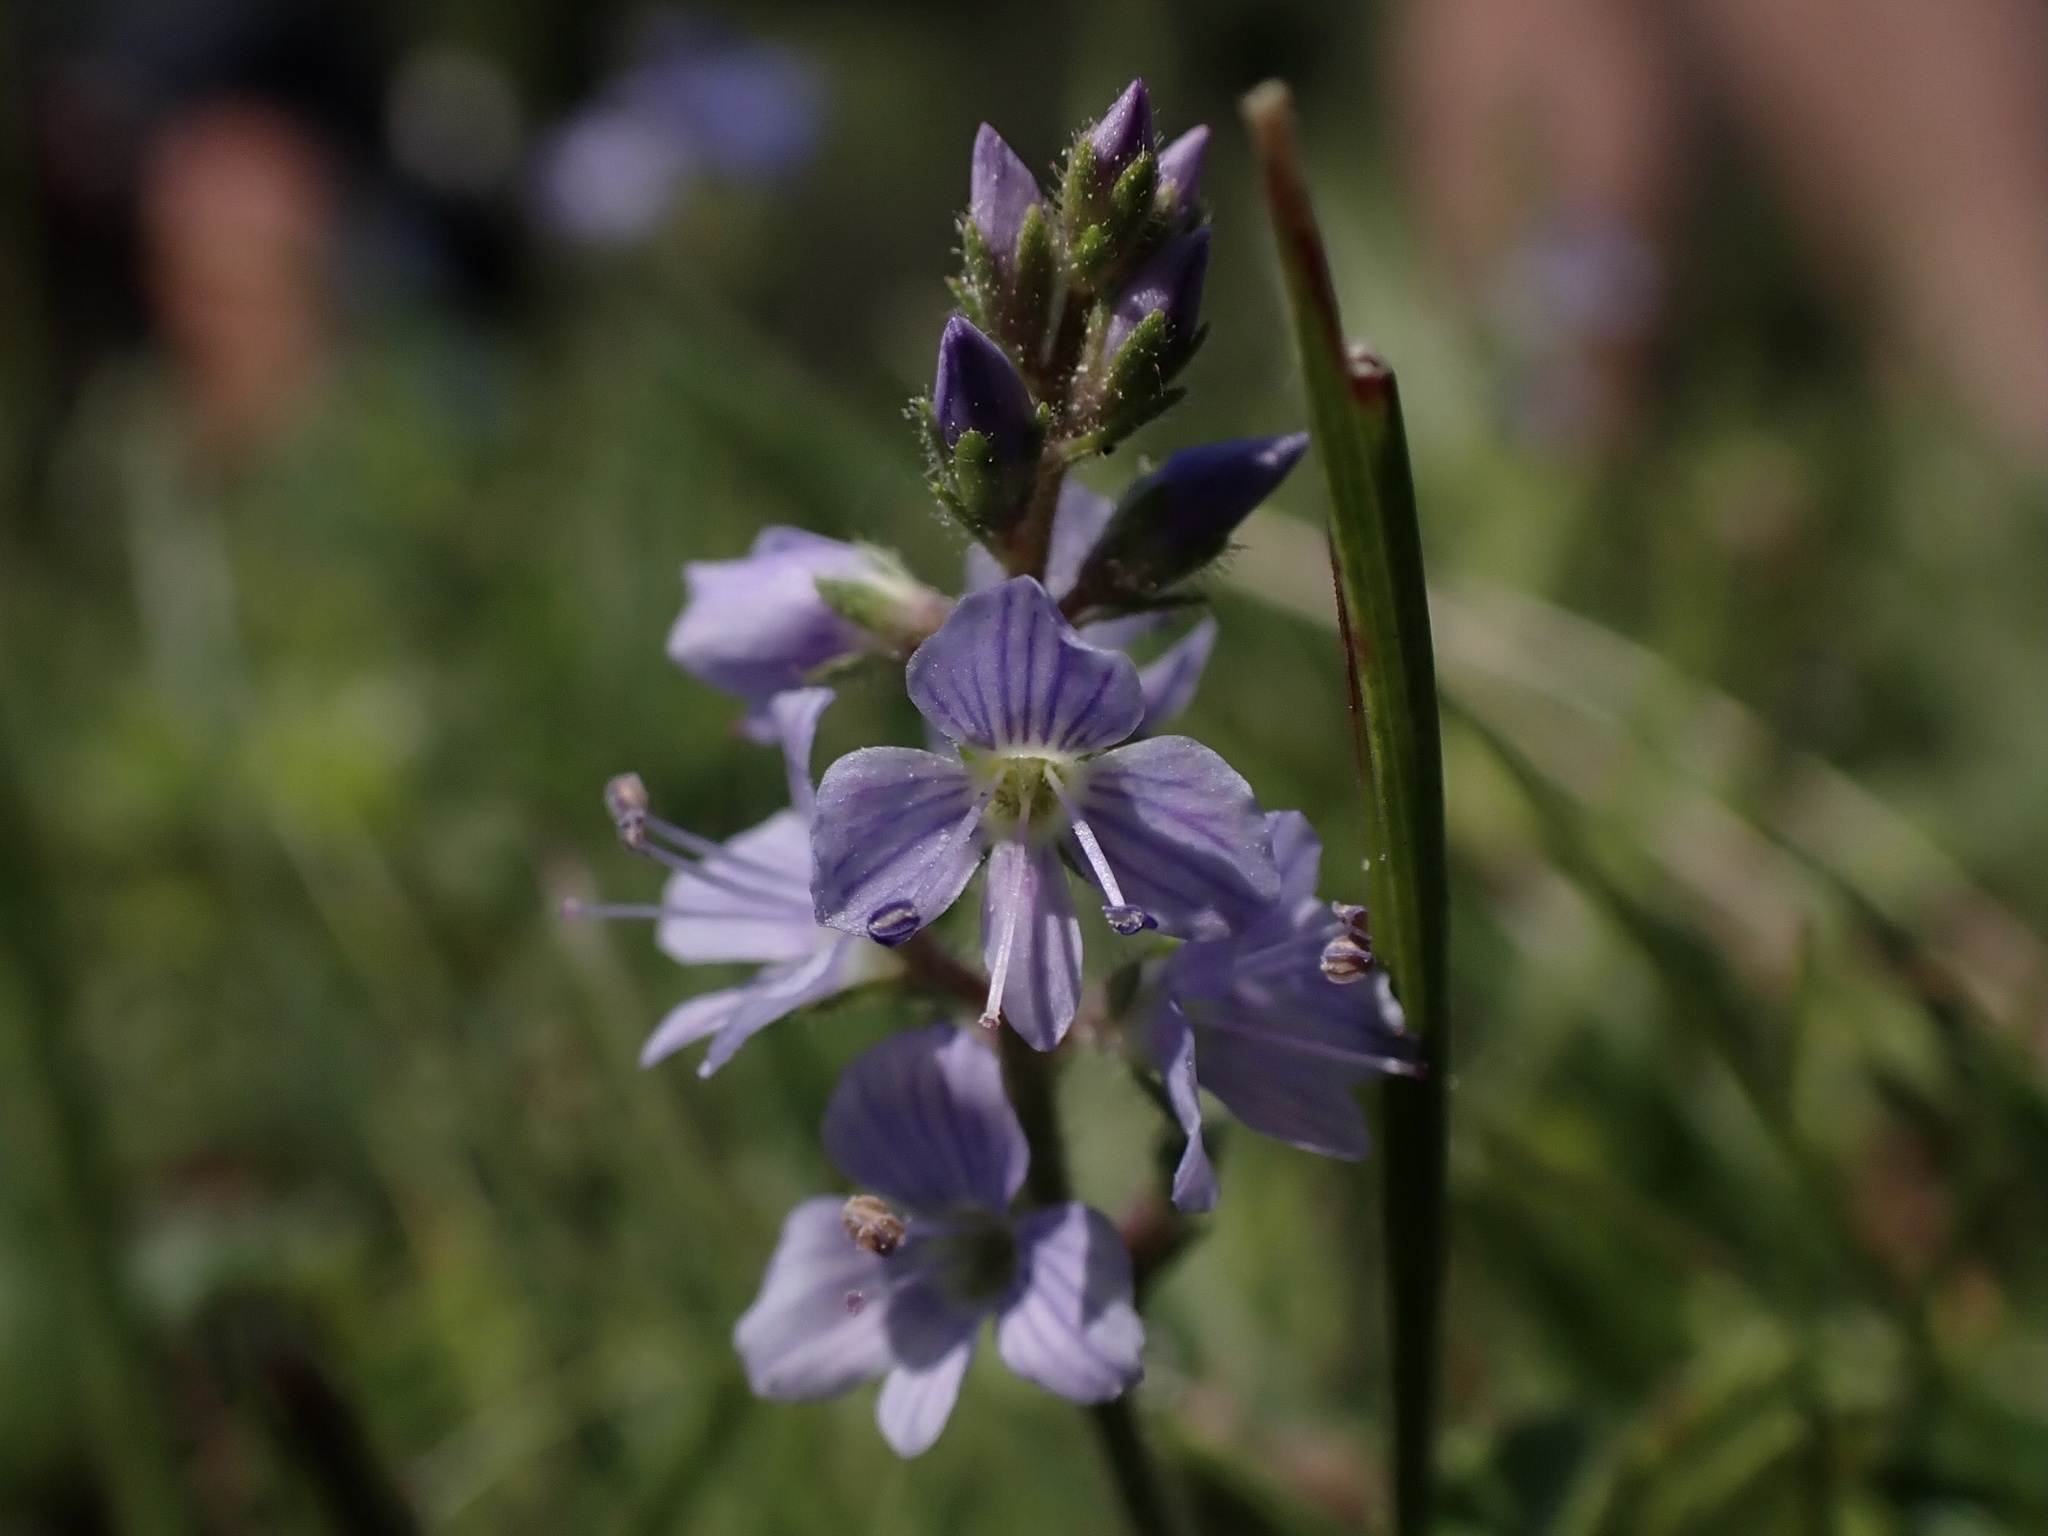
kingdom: Plantae
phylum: Tracheophyta
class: Magnoliopsida
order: Lamiales
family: Plantaginaceae
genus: Veronica
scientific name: Veronica officinalis
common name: Common speedwell
